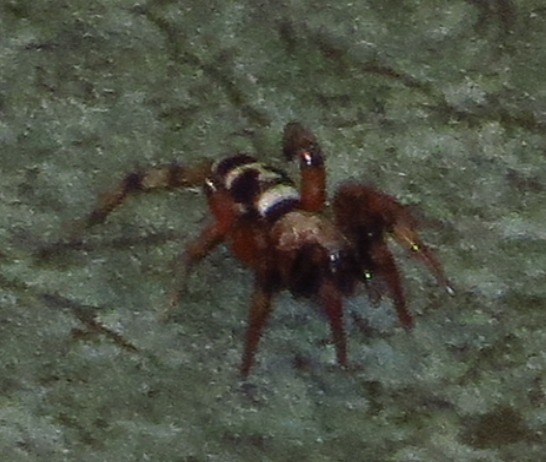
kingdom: Animalia
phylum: Arthropoda
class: Arachnida
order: Araneae
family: Gnaphosidae
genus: Sergiolus
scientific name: Sergiolus capulatus
